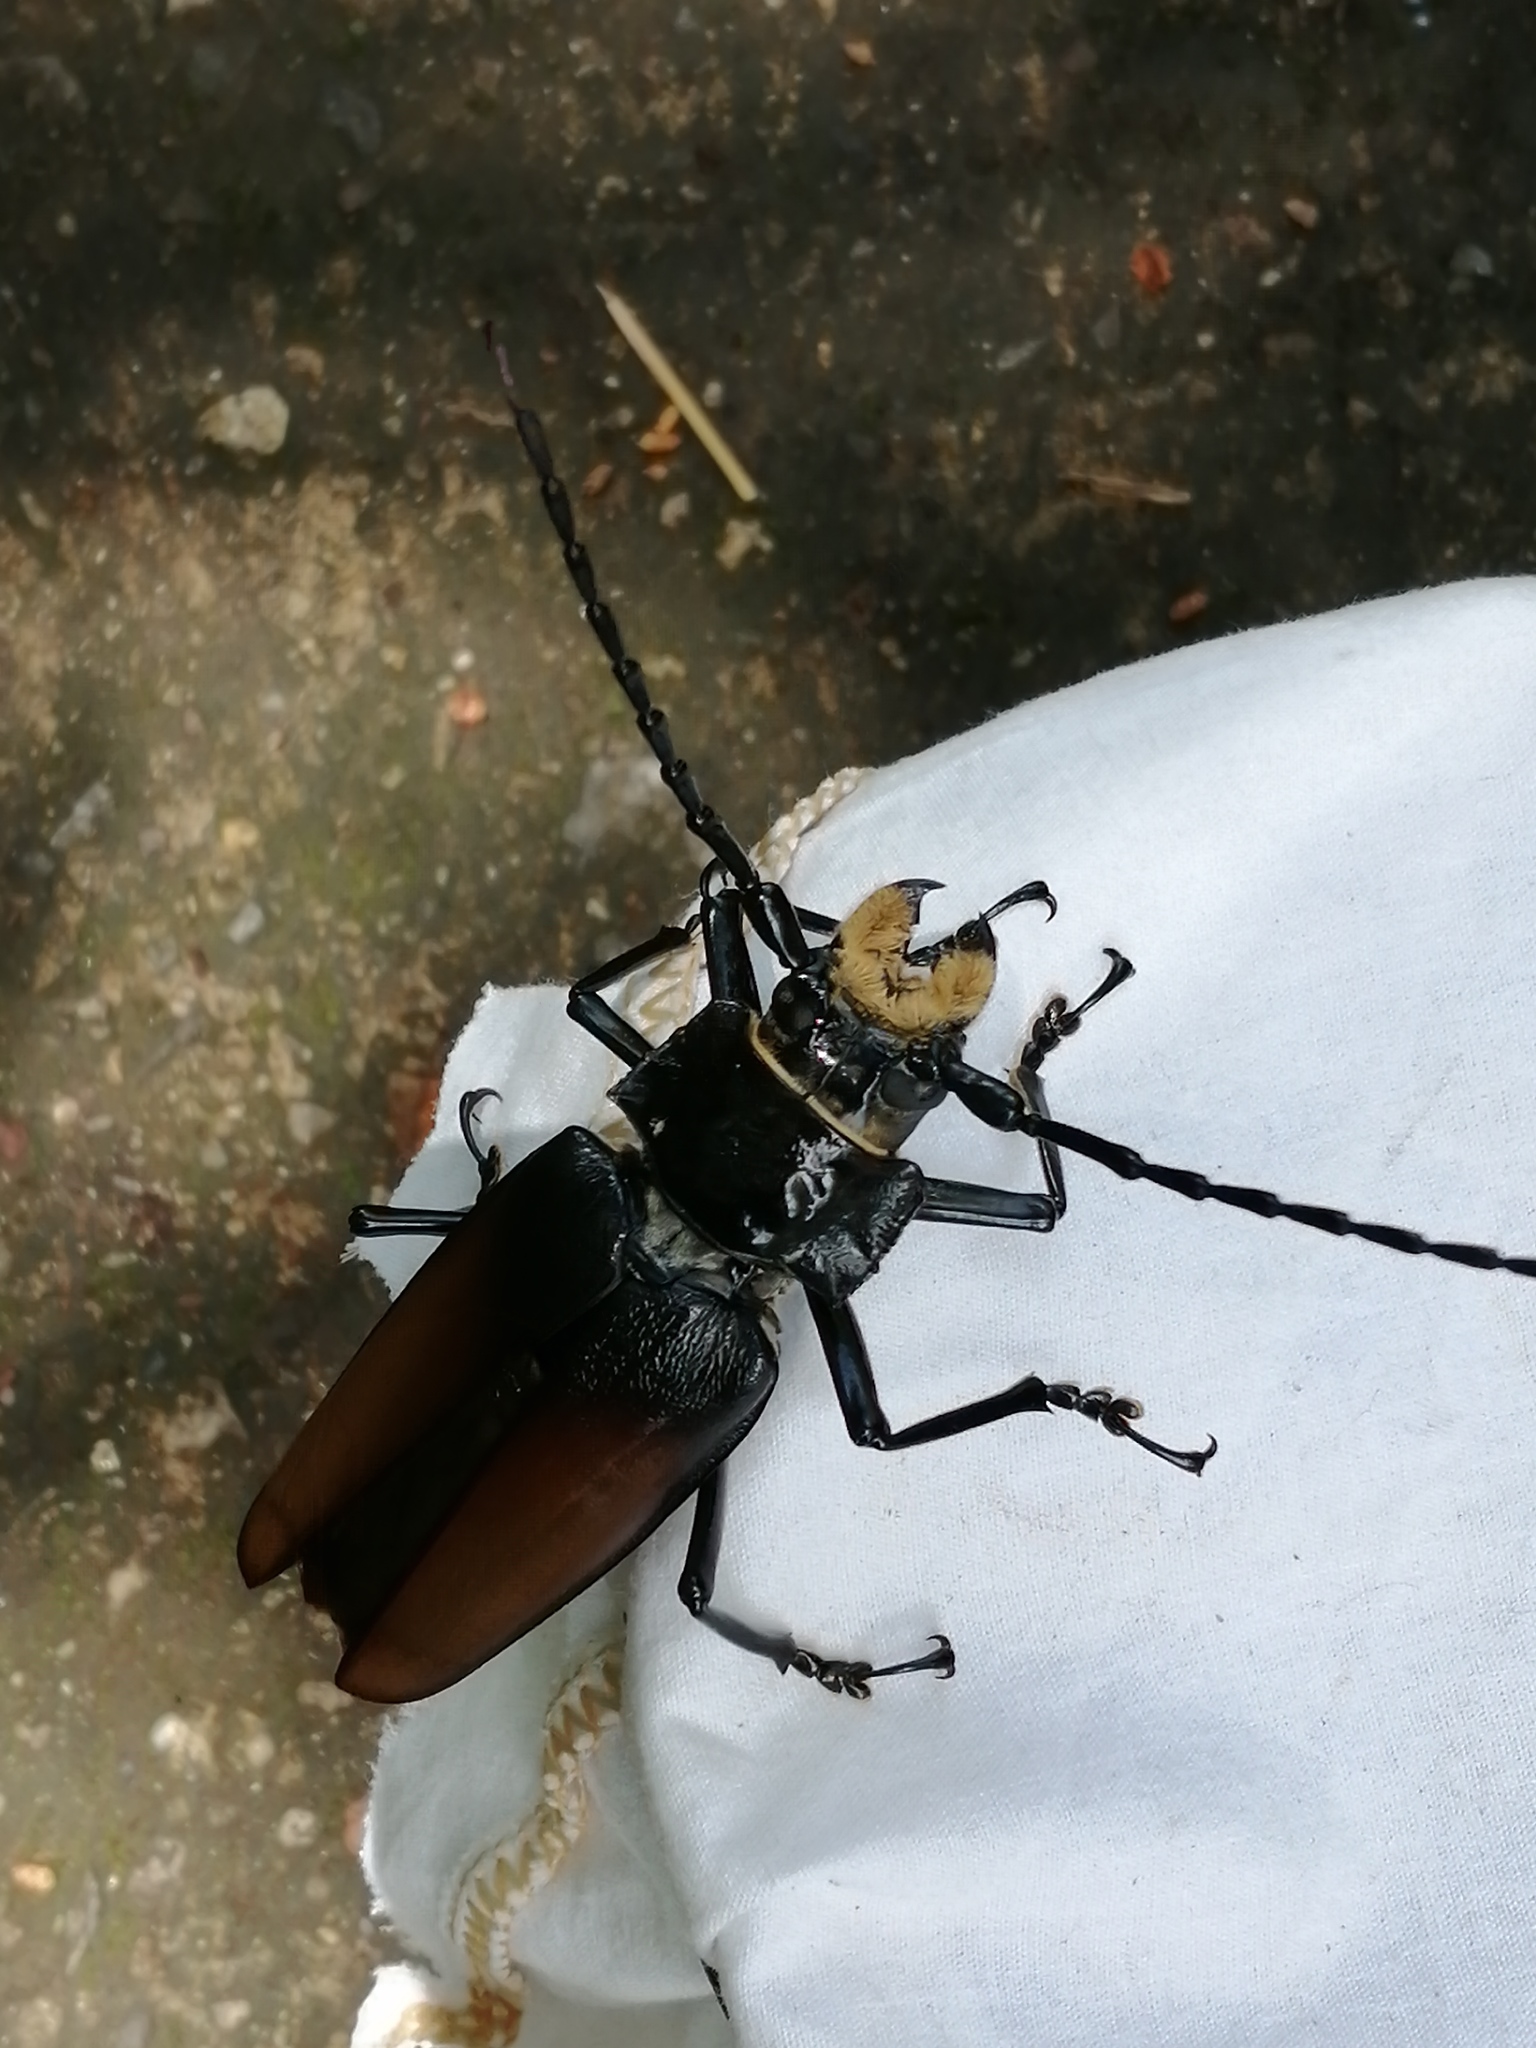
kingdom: Animalia
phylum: Arthropoda
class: Insecta
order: Coleoptera
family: Cerambycidae
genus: Callipogon
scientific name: Callipogon senex
